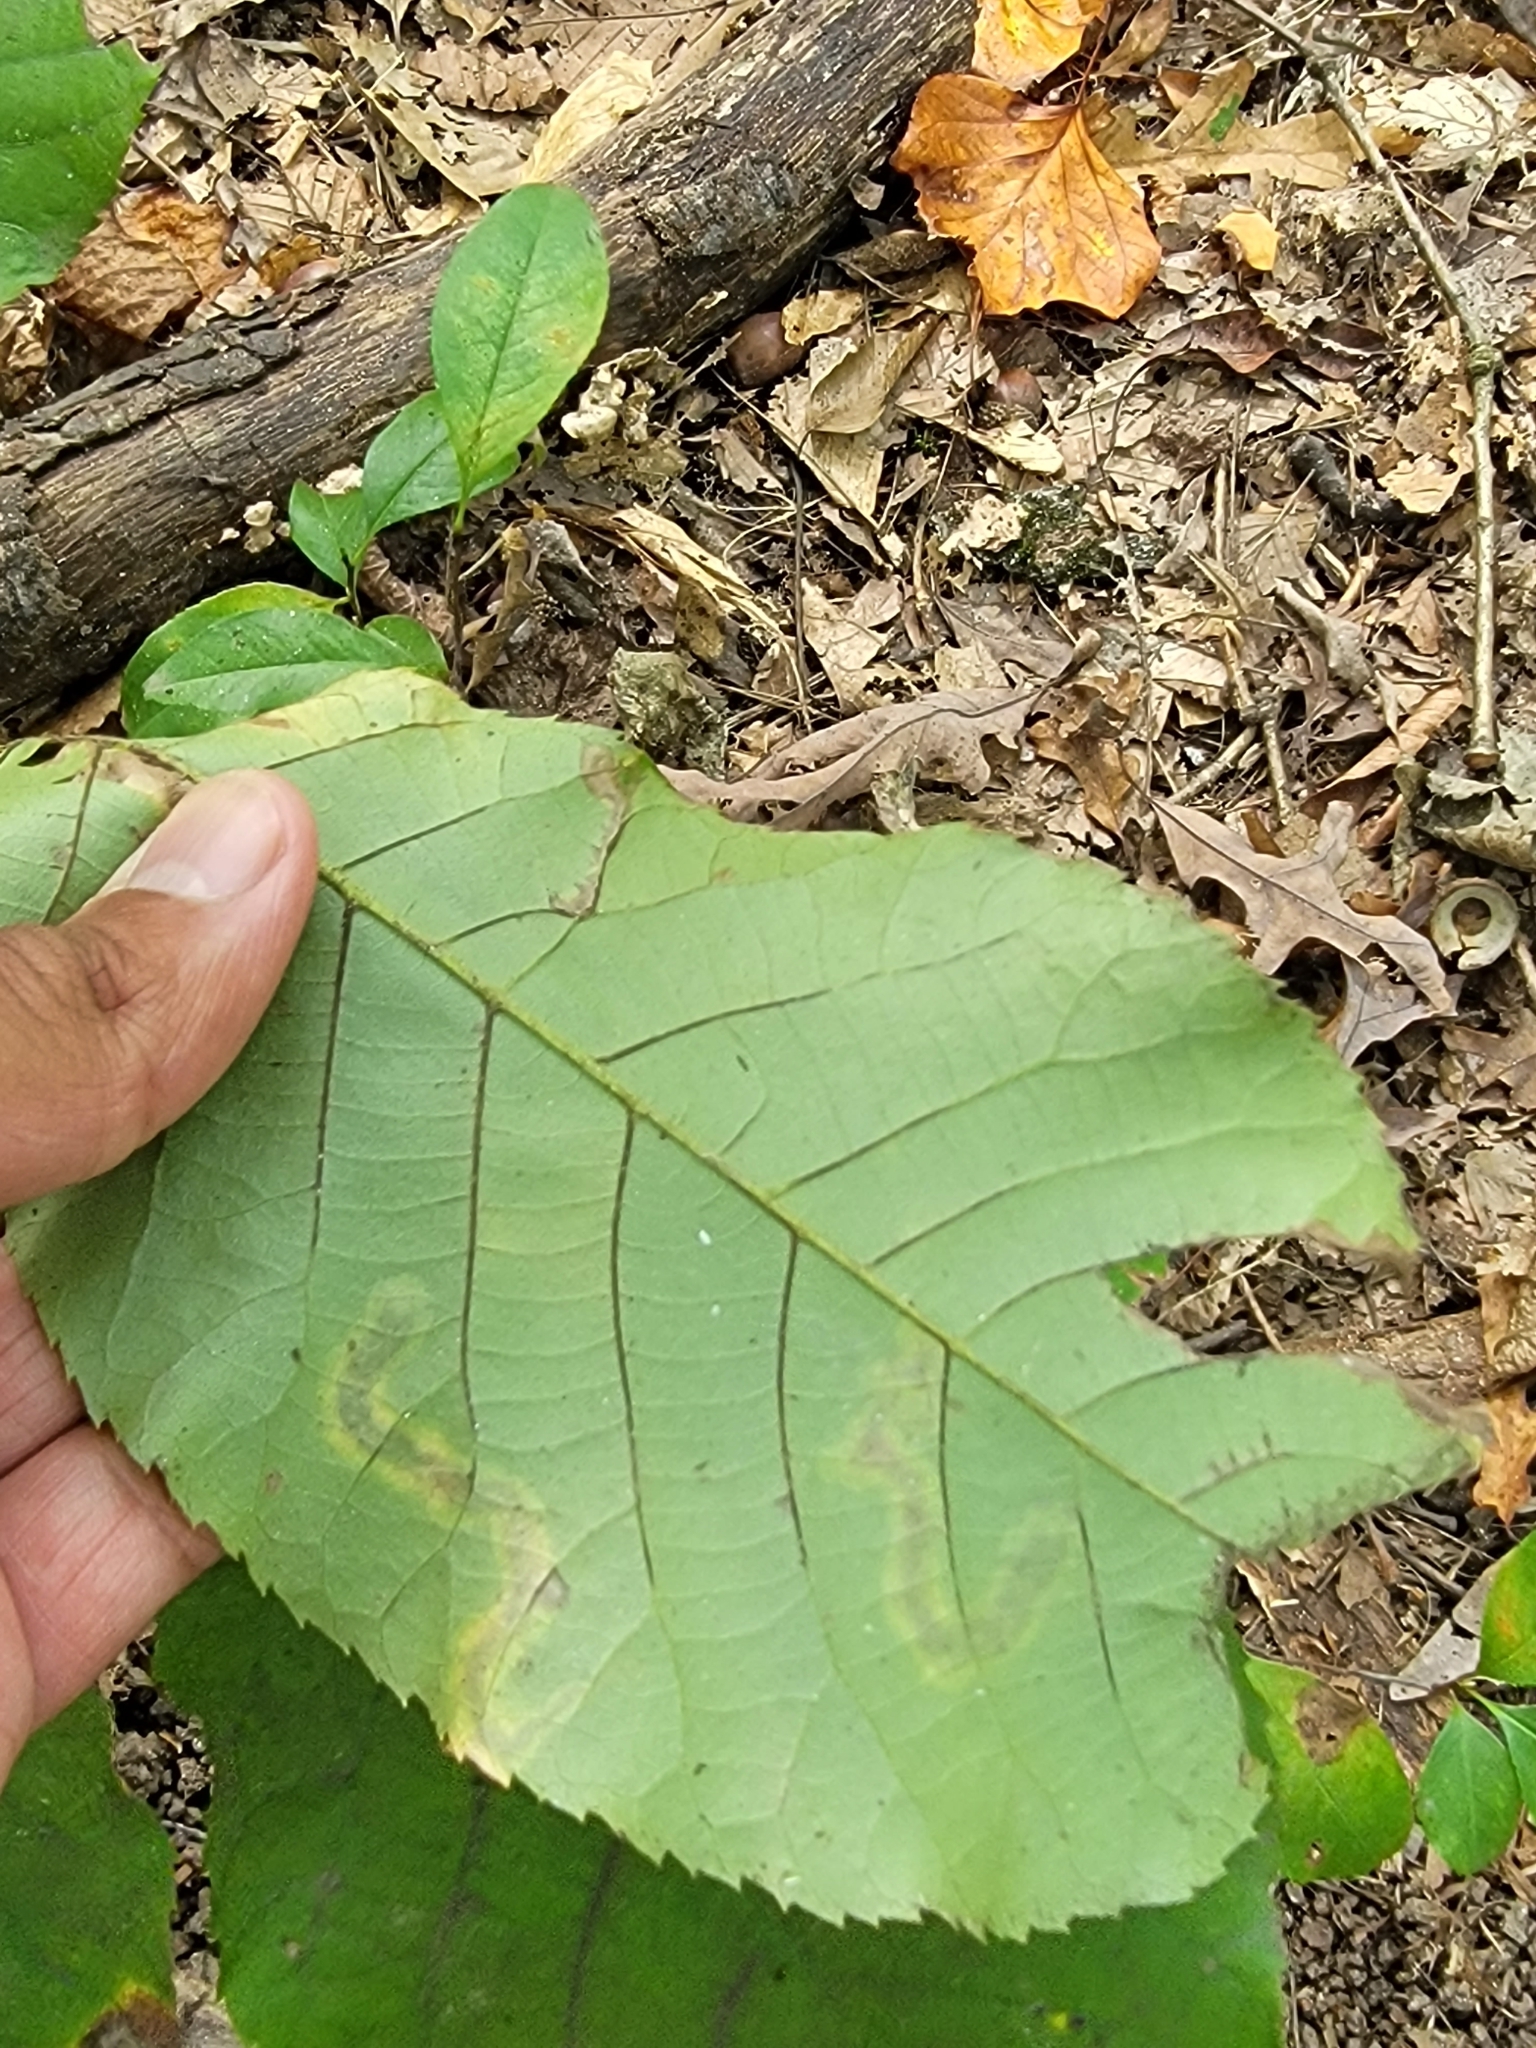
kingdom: Animalia
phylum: Arthropoda
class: Insecta
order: Lepidoptera
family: Gracillariidae
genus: Cameraria
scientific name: Cameraria caryaefoliella
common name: Pecan leafminer moth
